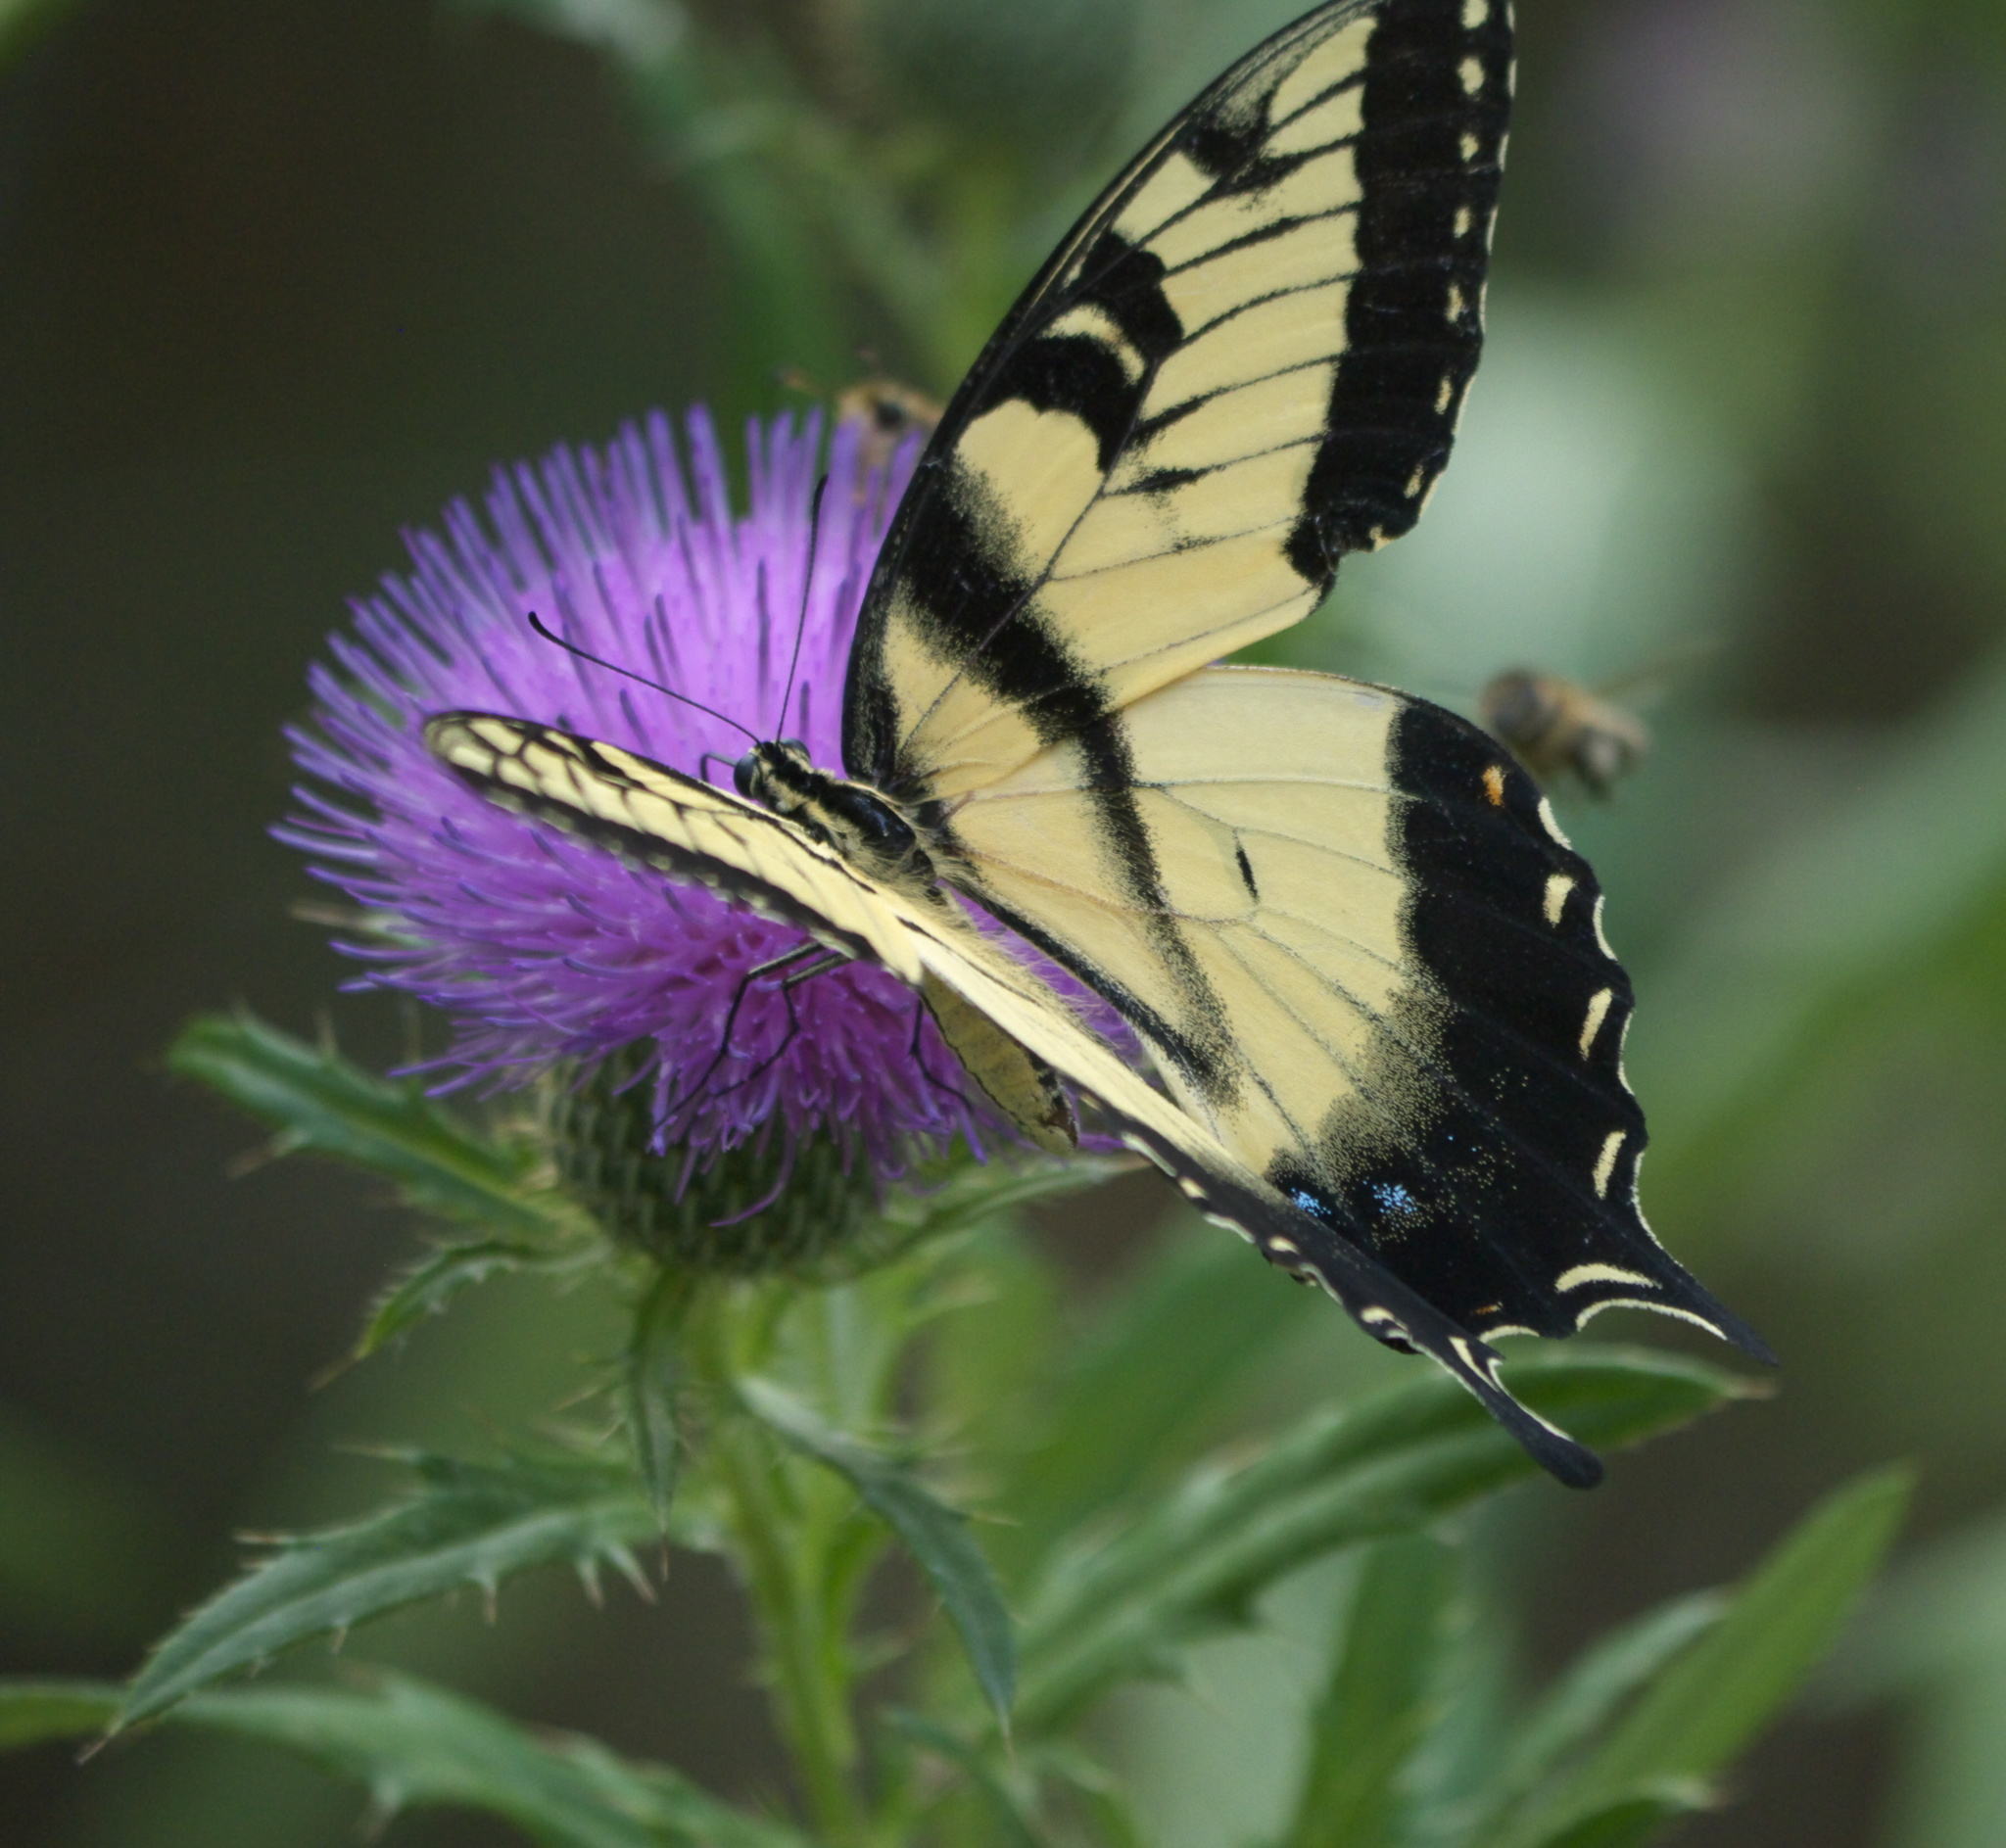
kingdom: Animalia
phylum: Arthropoda
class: Insecta
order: Lepidoptera
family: Papilionidae
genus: Papilio
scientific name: Papilio glaucus
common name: Tiger swallowtail
